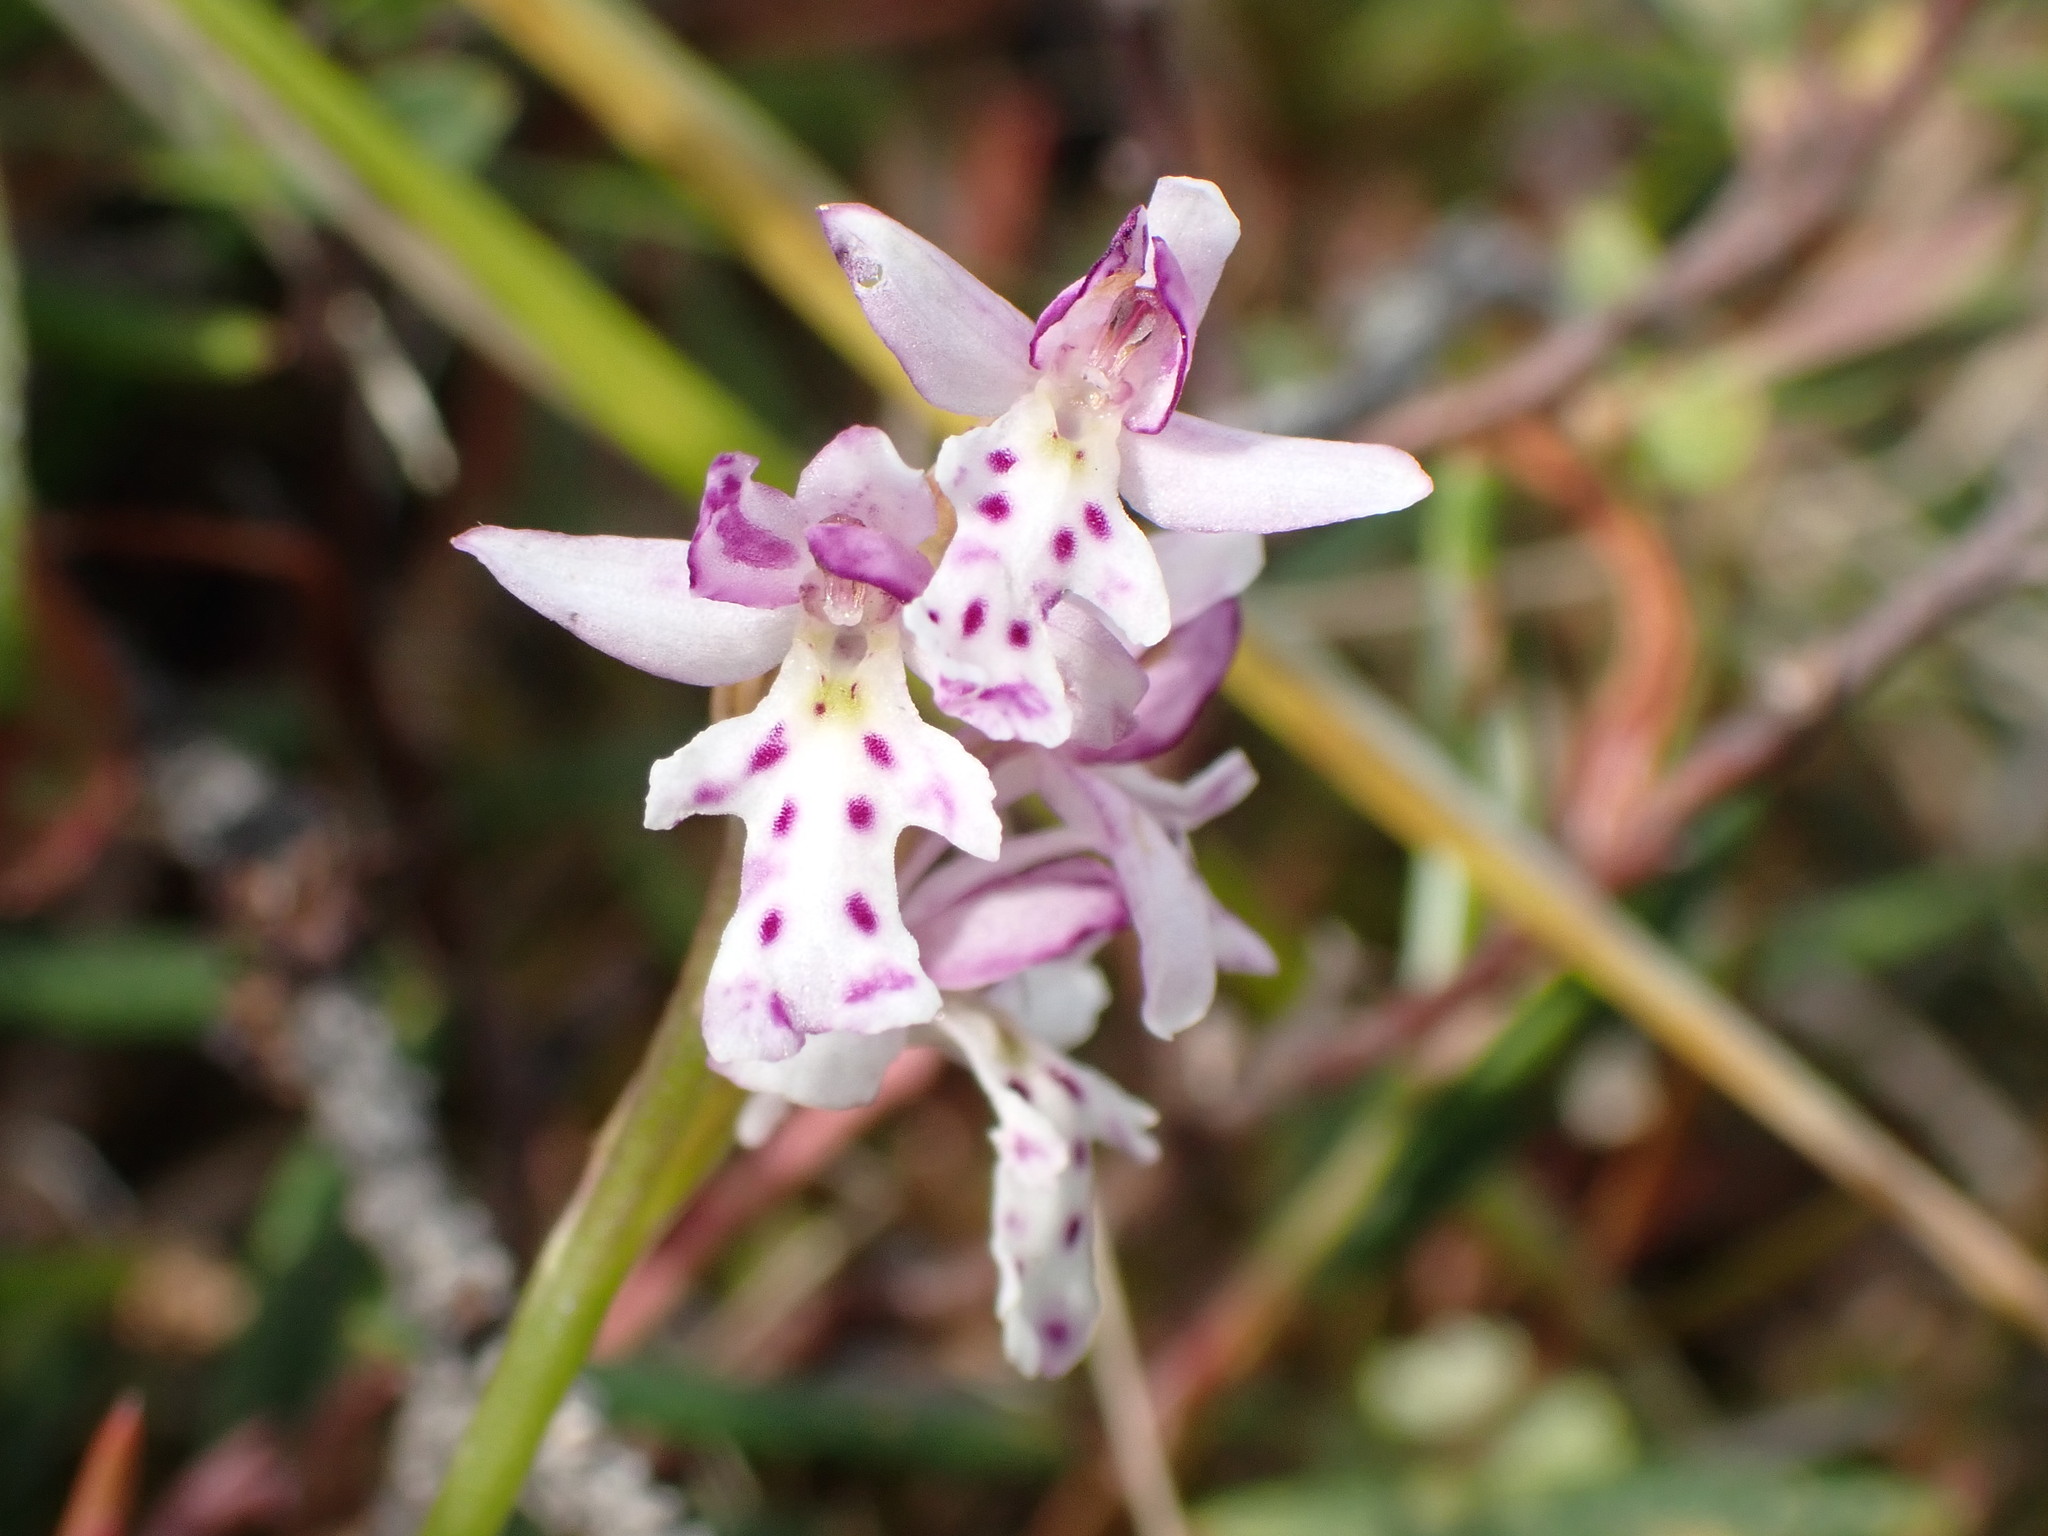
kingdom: Plantae
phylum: Tracheophyta
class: Liliopsida
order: Asparagales
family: Orchidaceae
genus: Galearis
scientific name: Galearis rotundifolia
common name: One-leaved orchis
